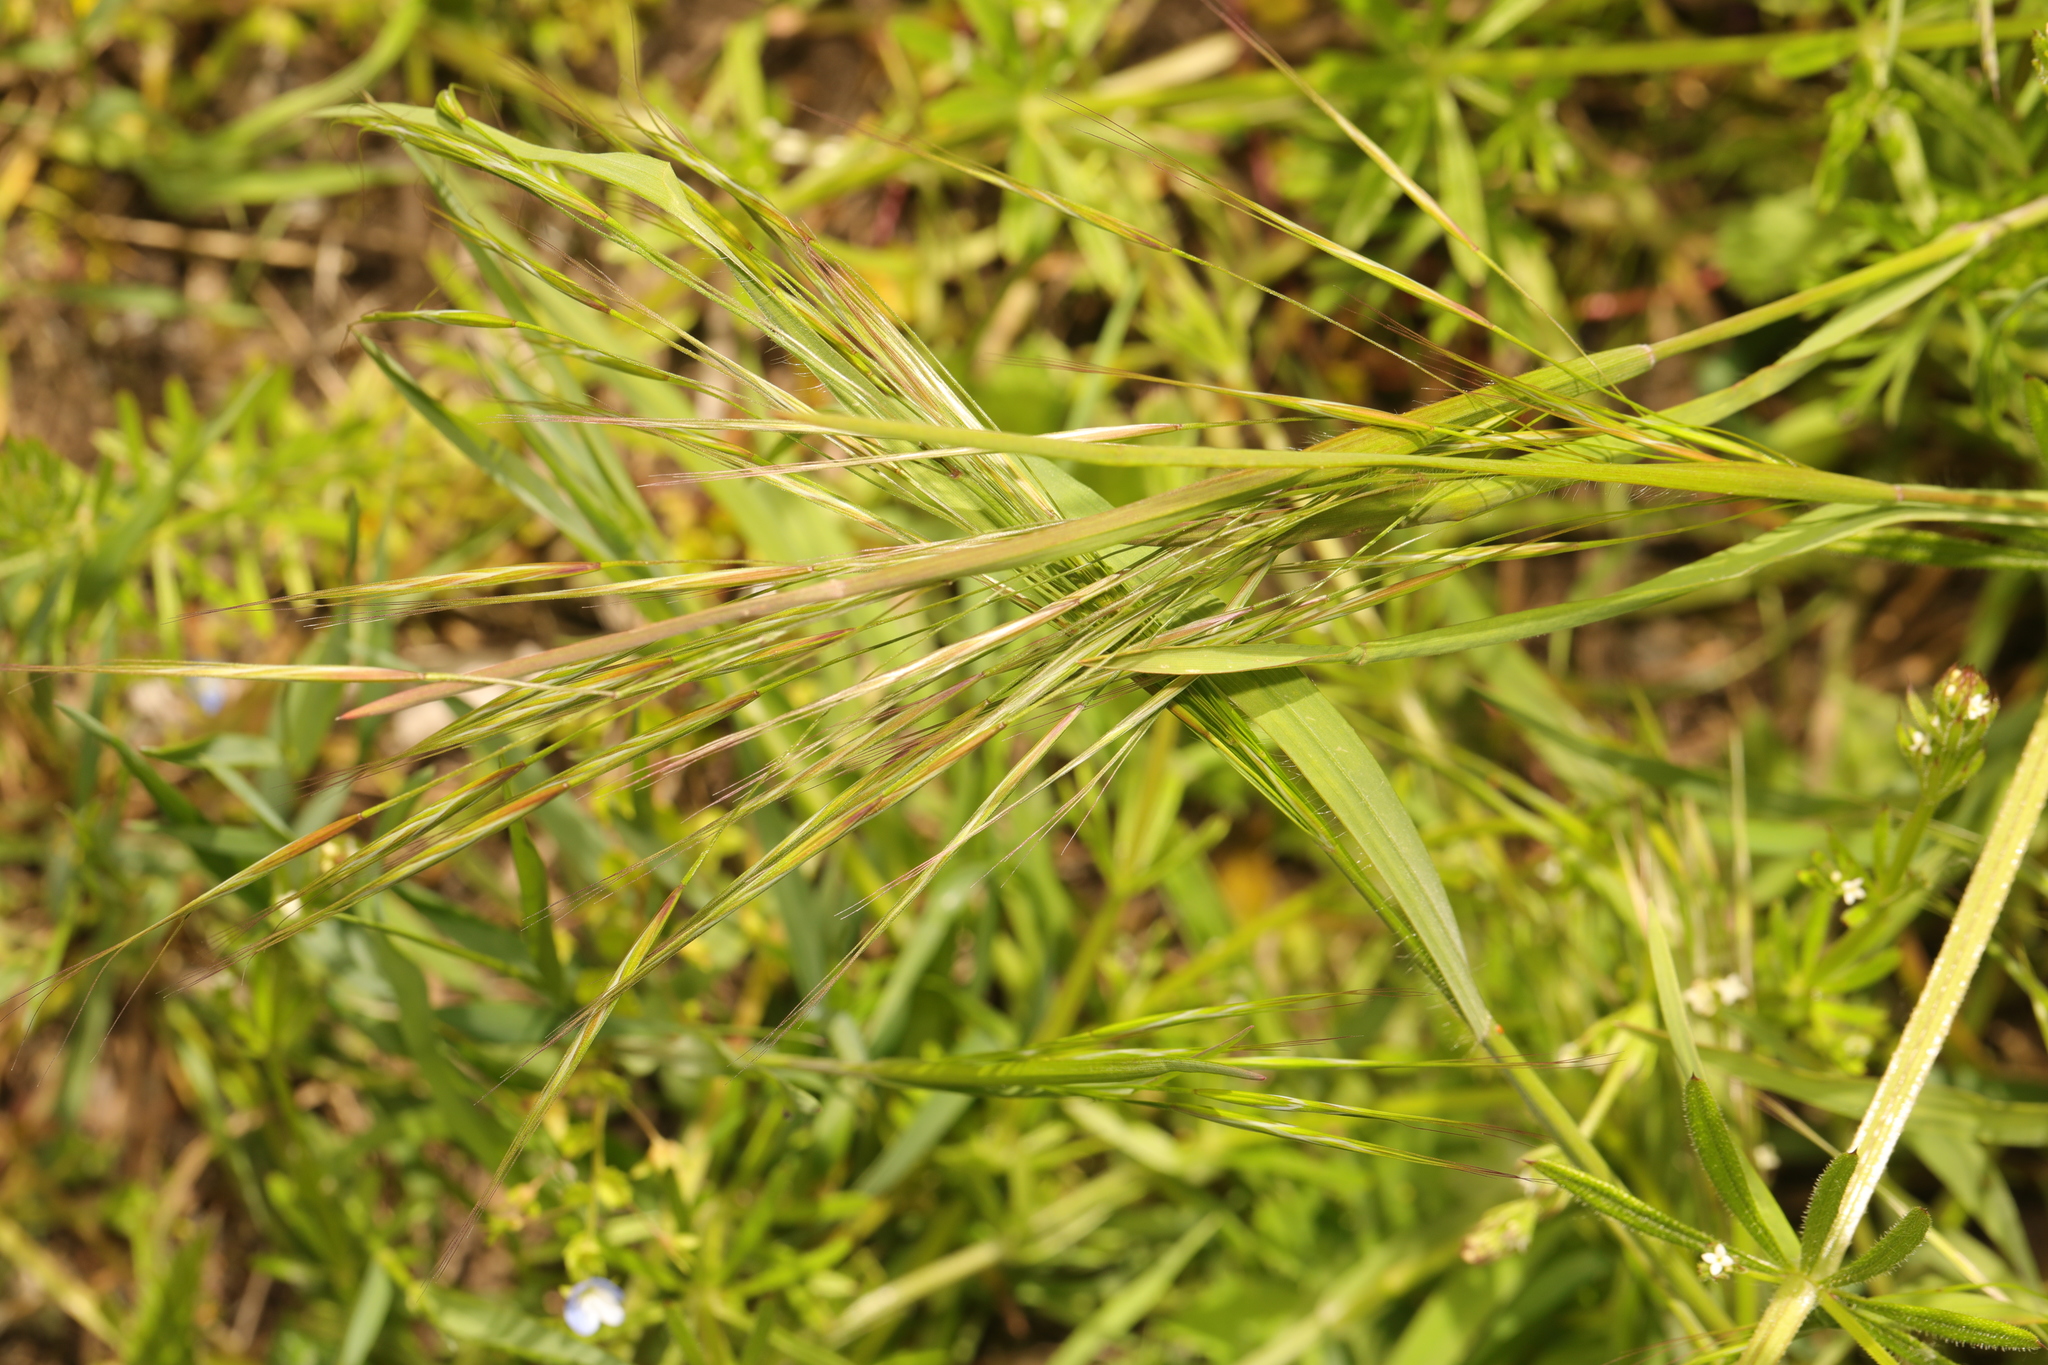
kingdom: Plantae
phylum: Tracheophyta
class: Liliopsida
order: Poales
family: Poaceae
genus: Bromus
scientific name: Bromus sterilis
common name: Poverty brome
